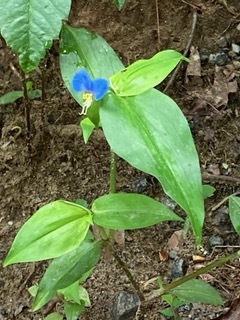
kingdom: Plantae
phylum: Tracheophyta
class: Liliopsida
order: Commelinales
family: Commelinaceae
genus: Commelina
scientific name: Commelina communis
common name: Asiatic dayflower
